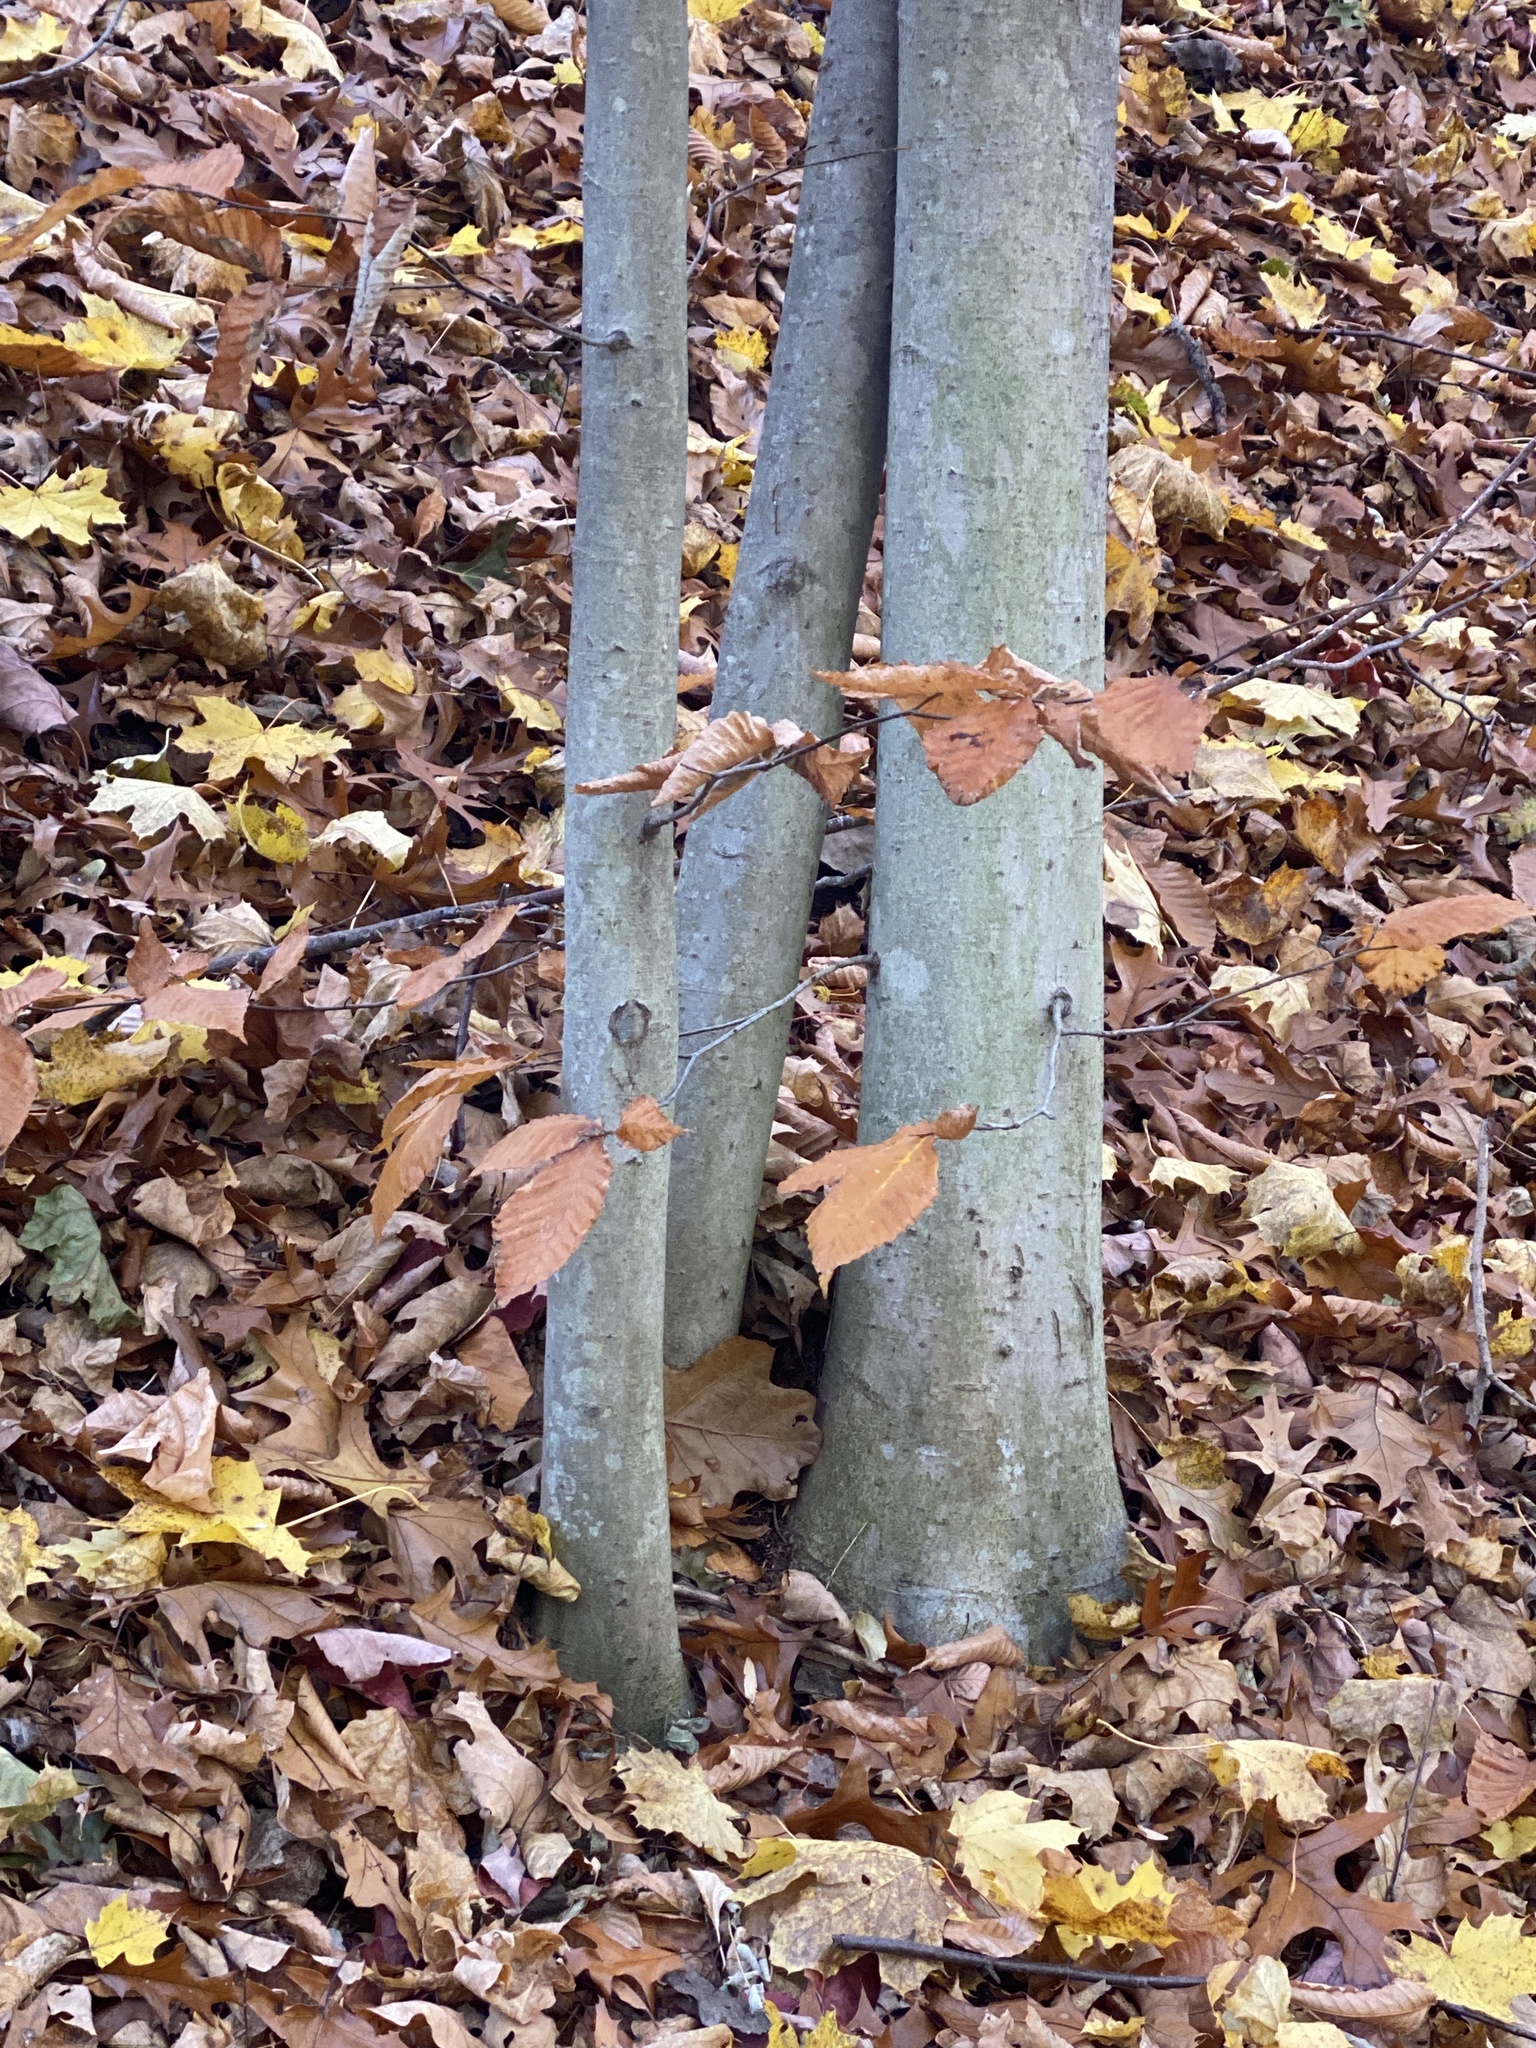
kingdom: Plantae
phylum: Tracheophyta
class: Magnoliopsida
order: Fagales
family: Fagaceae
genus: Fagus
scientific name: Fagus grandifolia
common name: American beech
